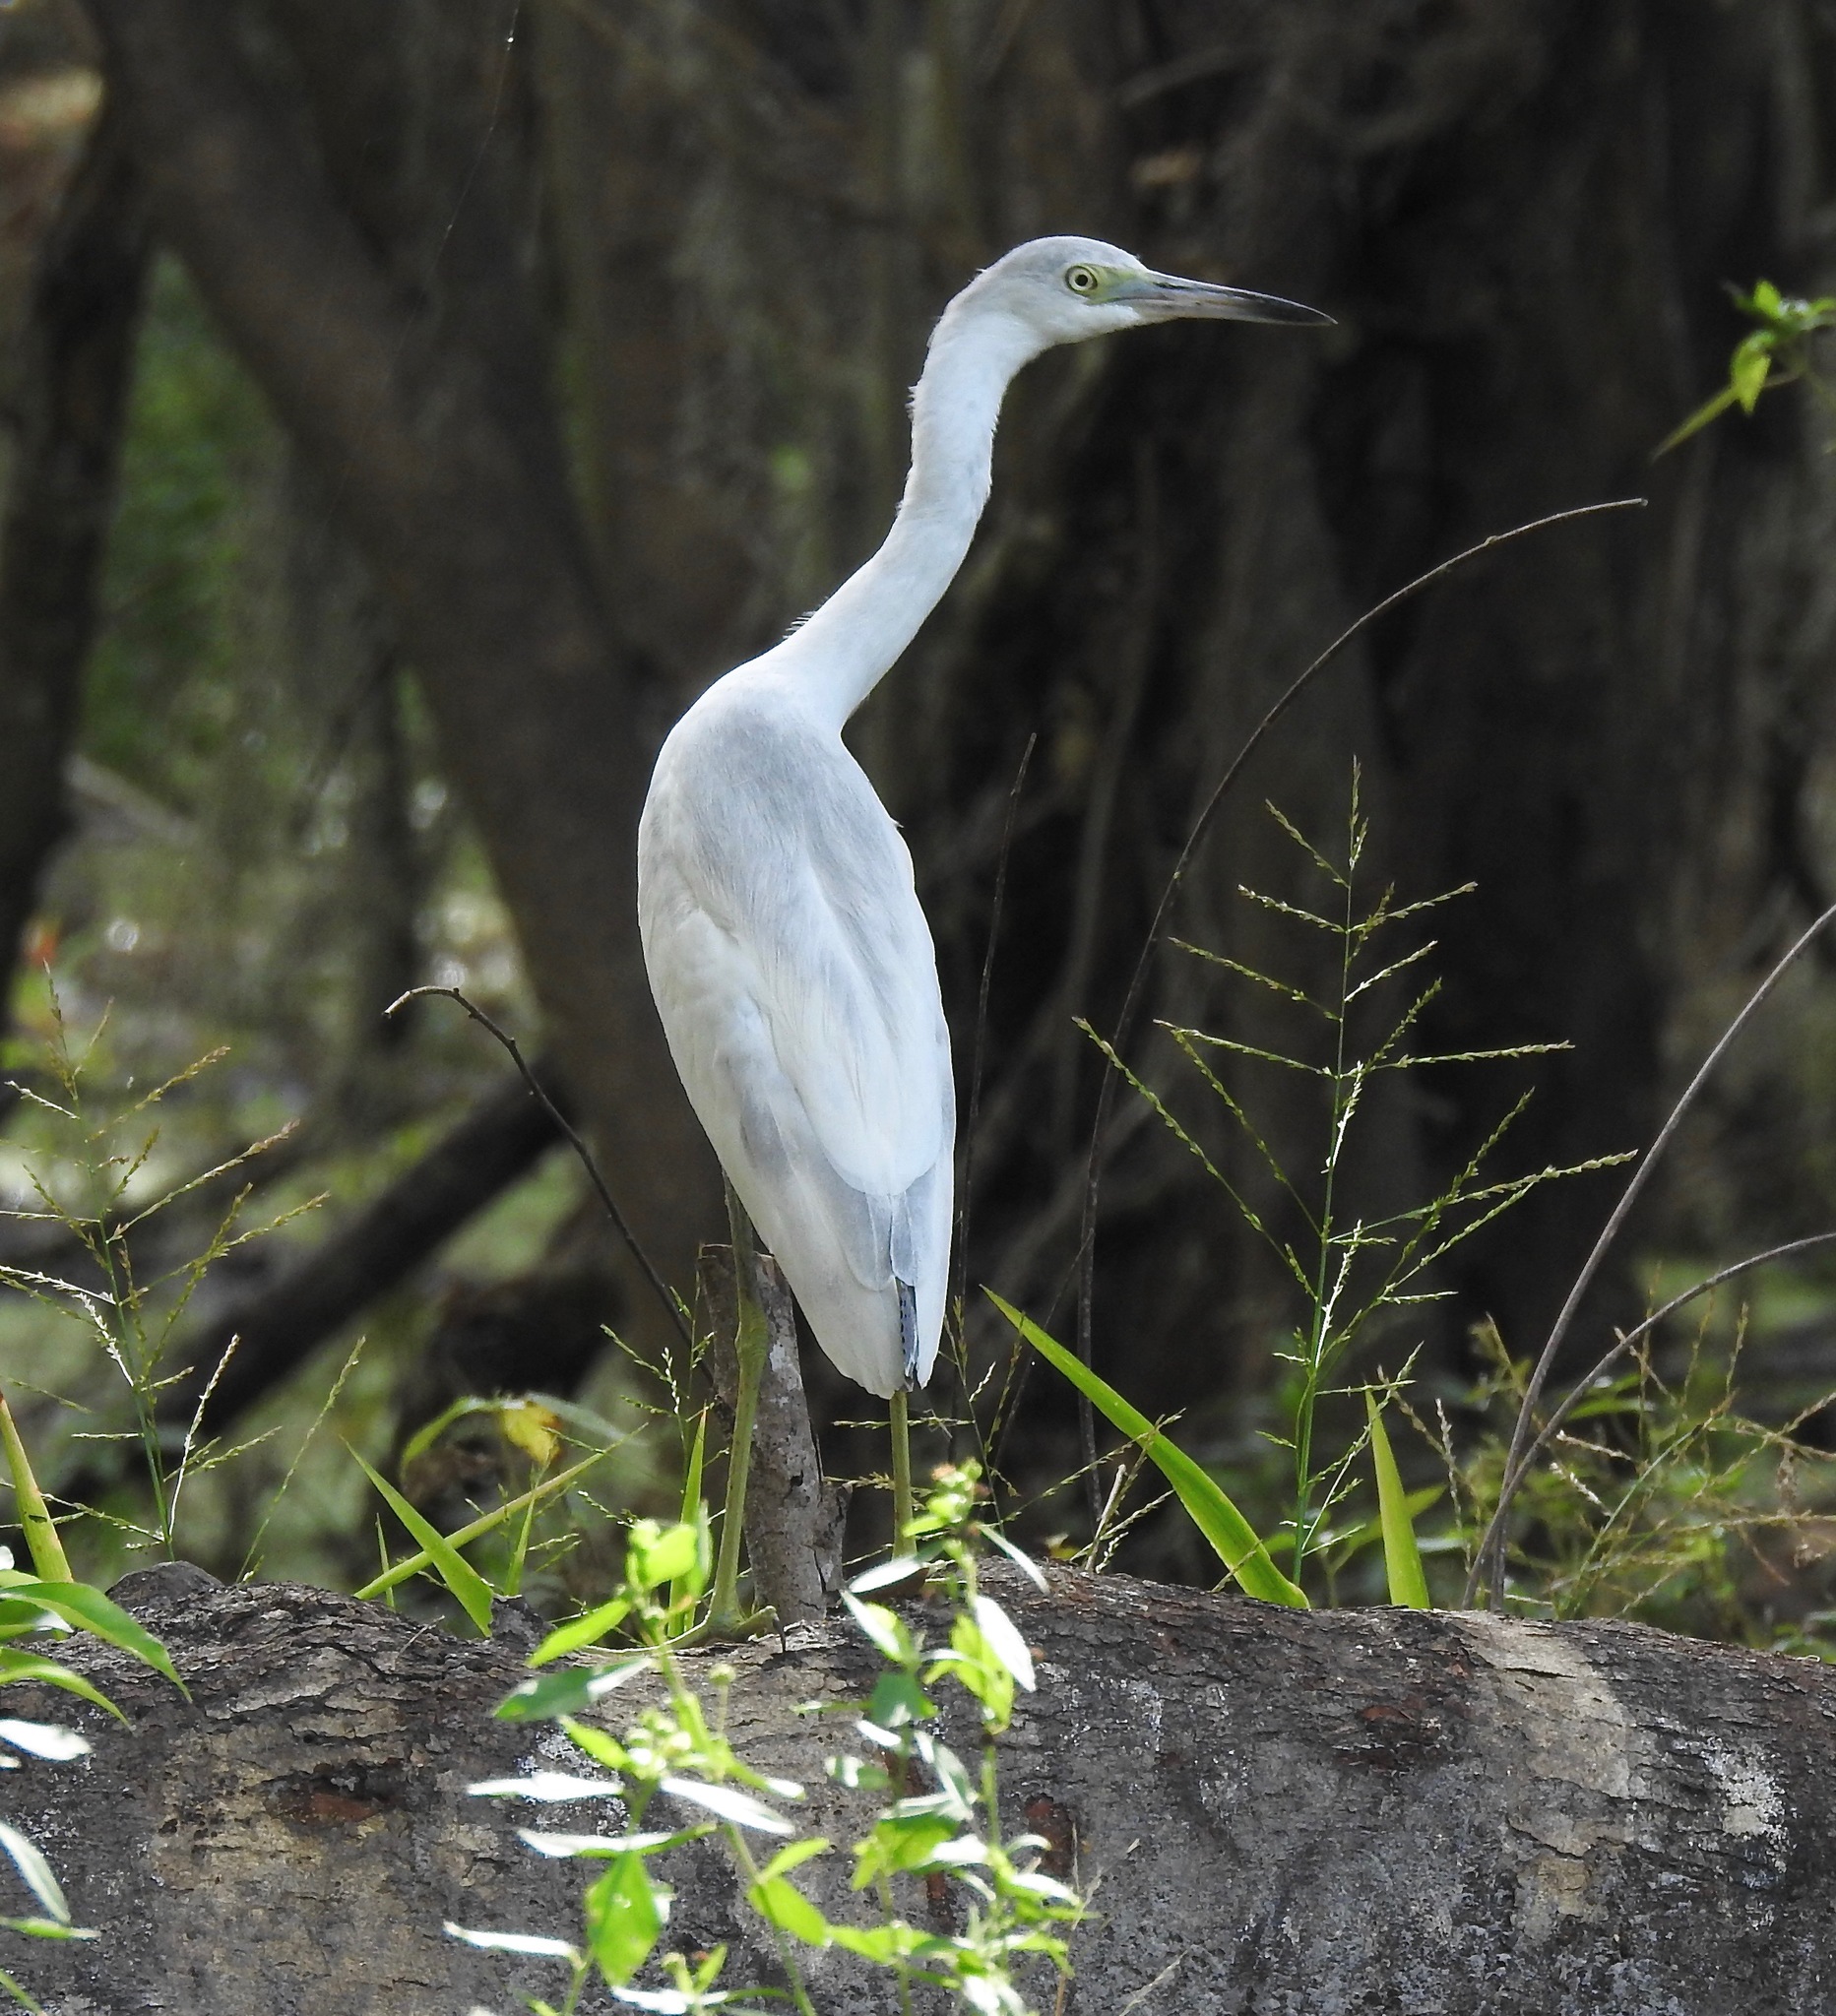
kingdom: Animalia
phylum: Chordata
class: Aves
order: Pelecaniformes
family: Ardeidae
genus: Egretta
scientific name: Egretta caerulea
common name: Little blue heron
